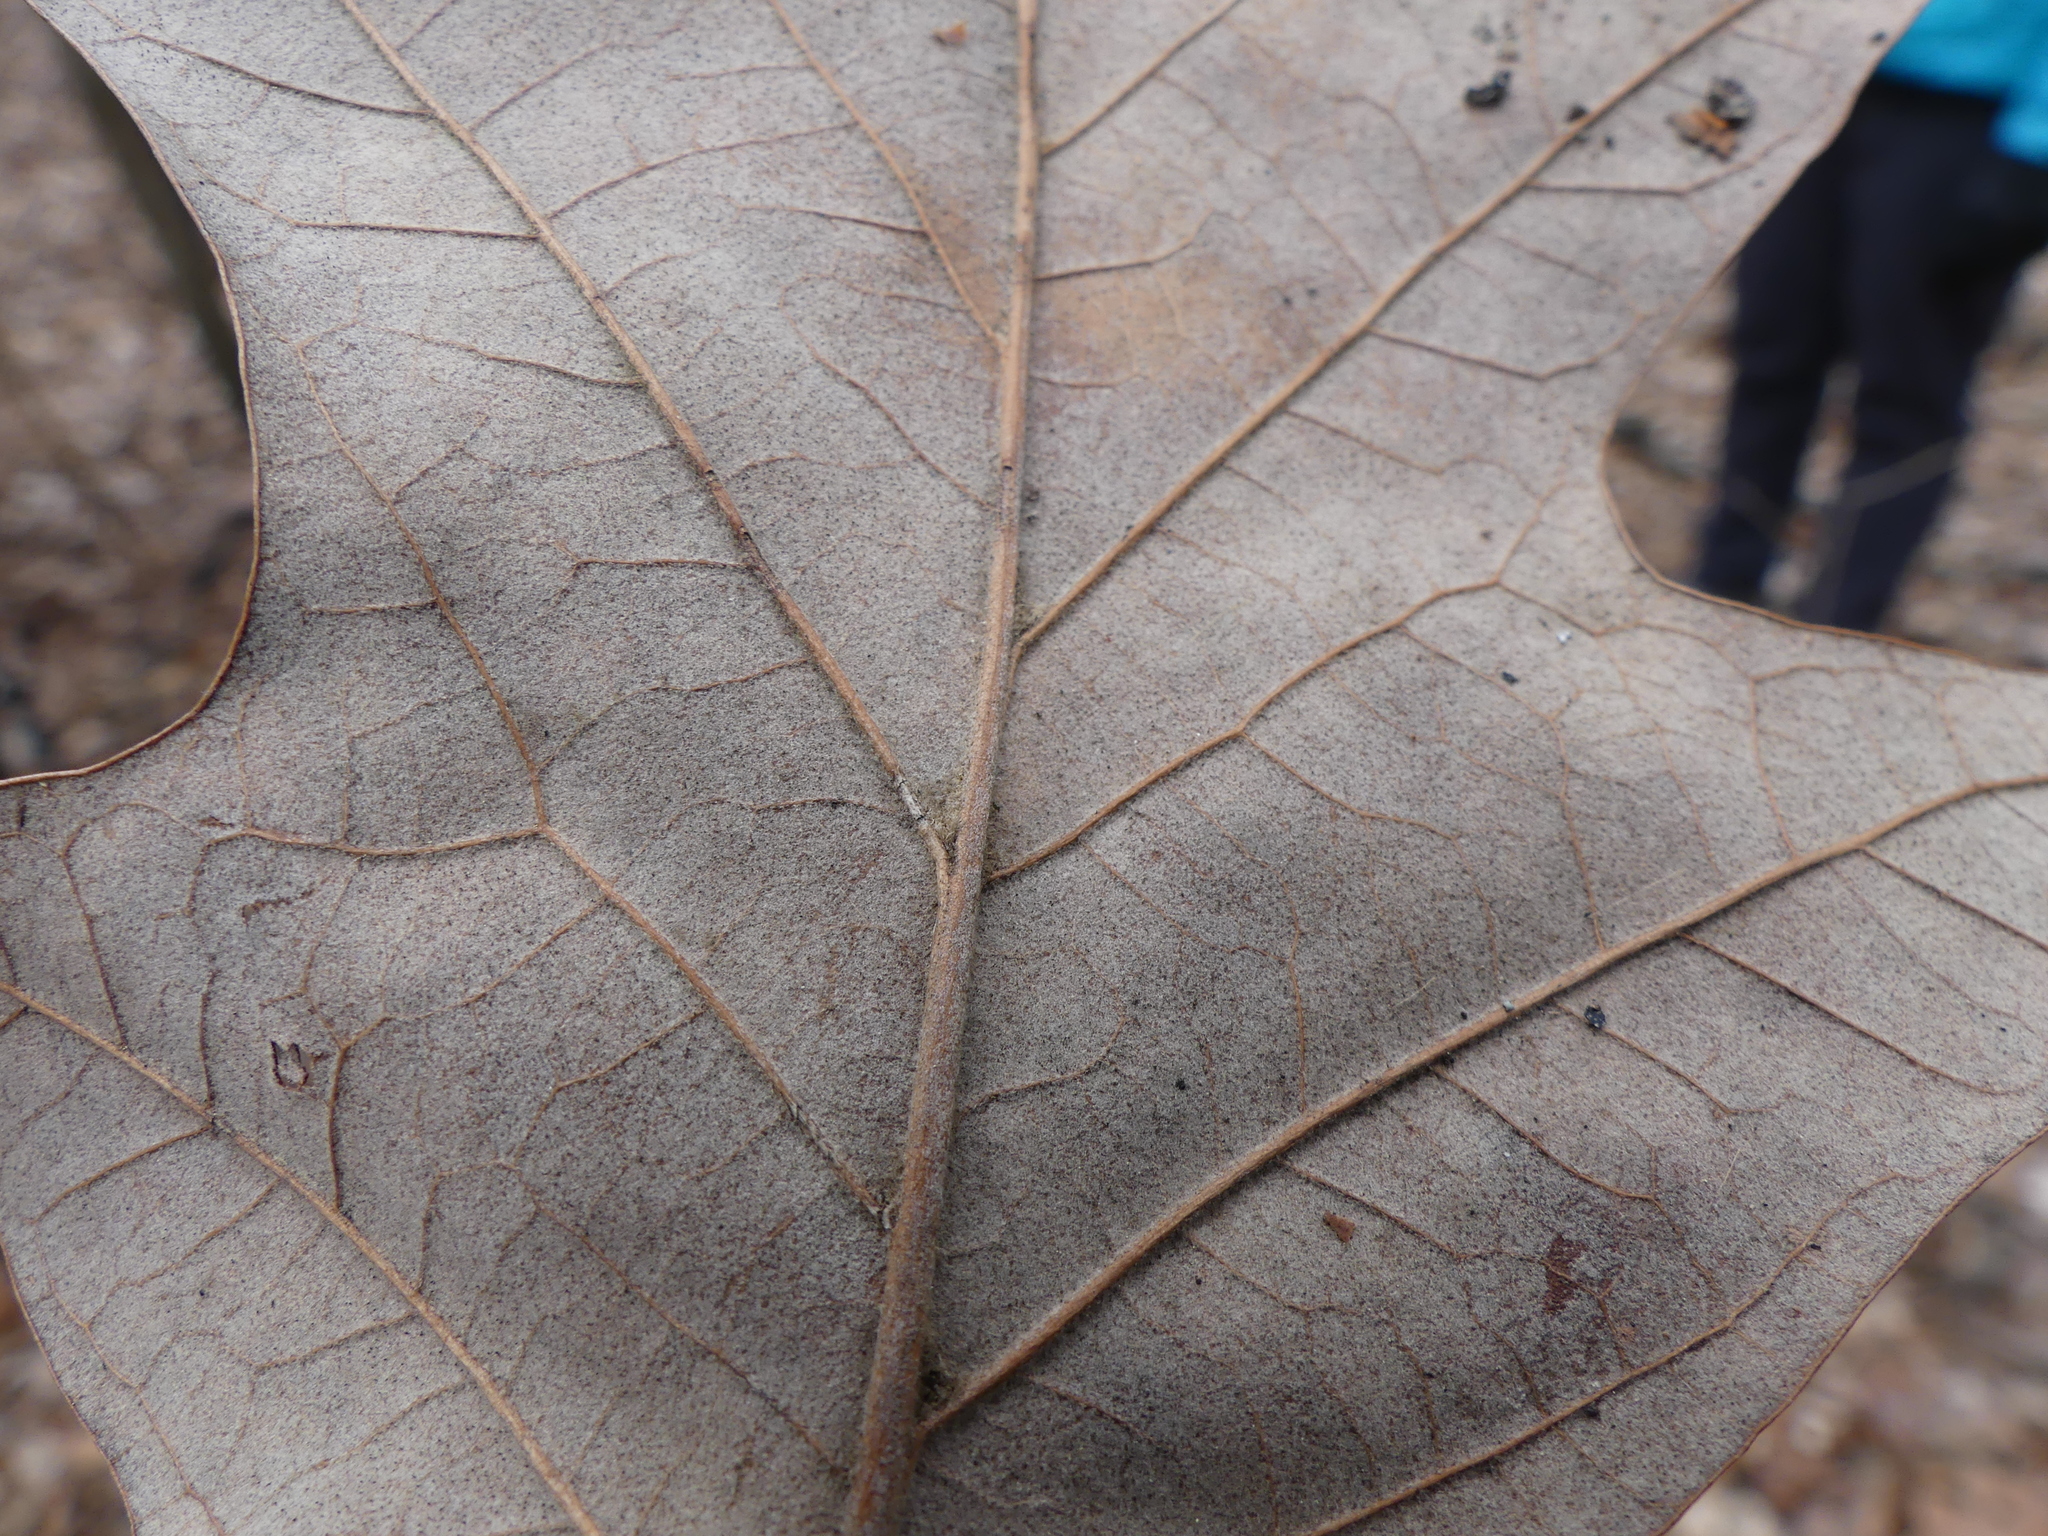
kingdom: Plantae
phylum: Tracheophyta
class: Magnoliopsida
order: Fagales
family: Fagaceae
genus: Quercus
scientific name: Quercus pagoda
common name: Cherrybark oak
